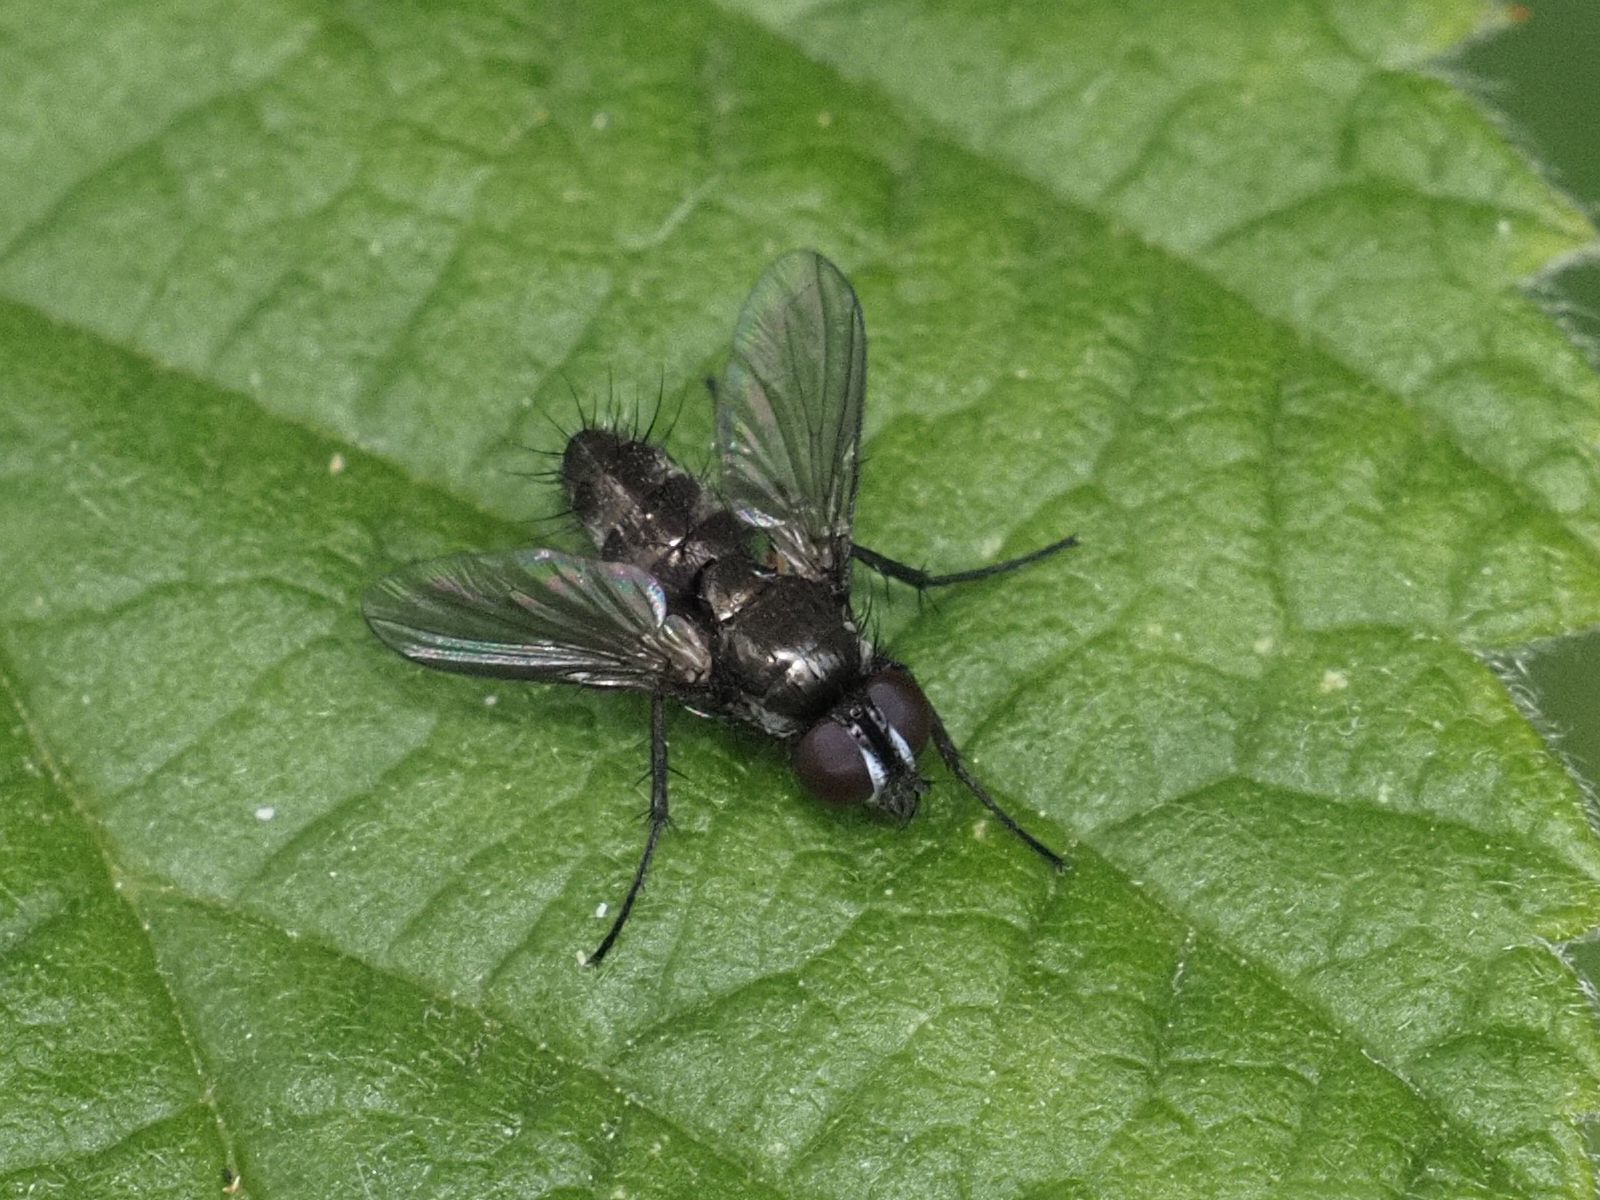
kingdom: Animalia
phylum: Arthropoda
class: Insecta
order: Diptera
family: Calliphoridae
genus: Rhinophora
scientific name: Rhinophora lepida
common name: Pouting woodlouse-fly
